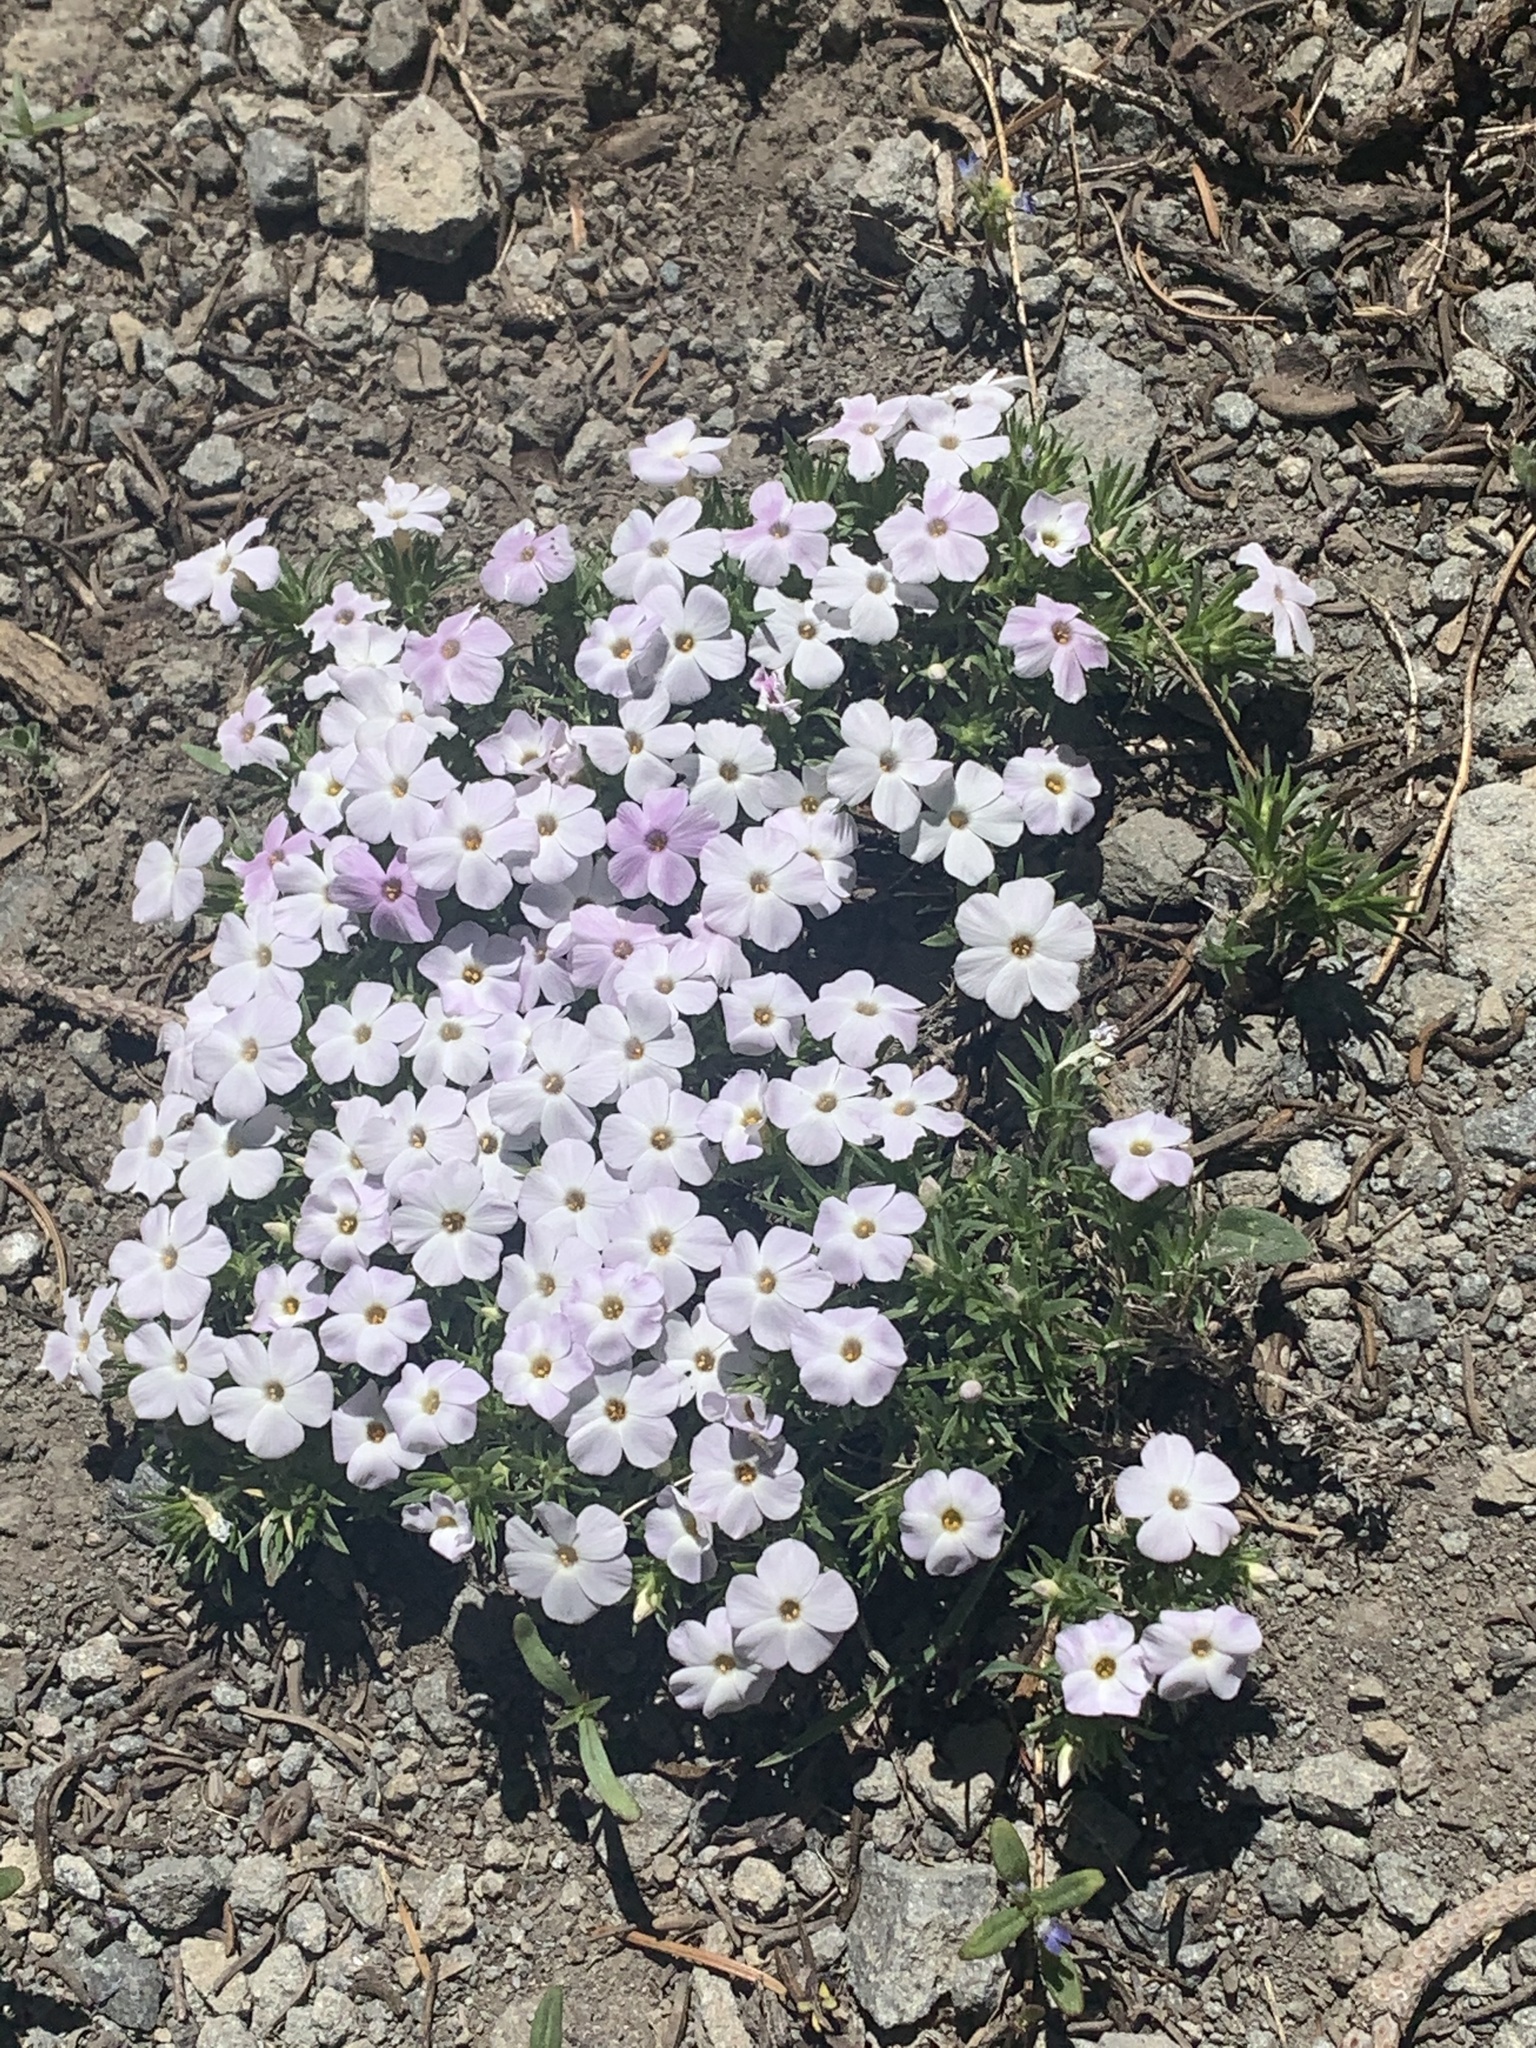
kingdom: Plantae
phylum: Tracheophyta
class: Magnoliopsida
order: Ericales
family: Polemoniaceae
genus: Phlox
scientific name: Phlox diffusa
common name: Mat phlox
